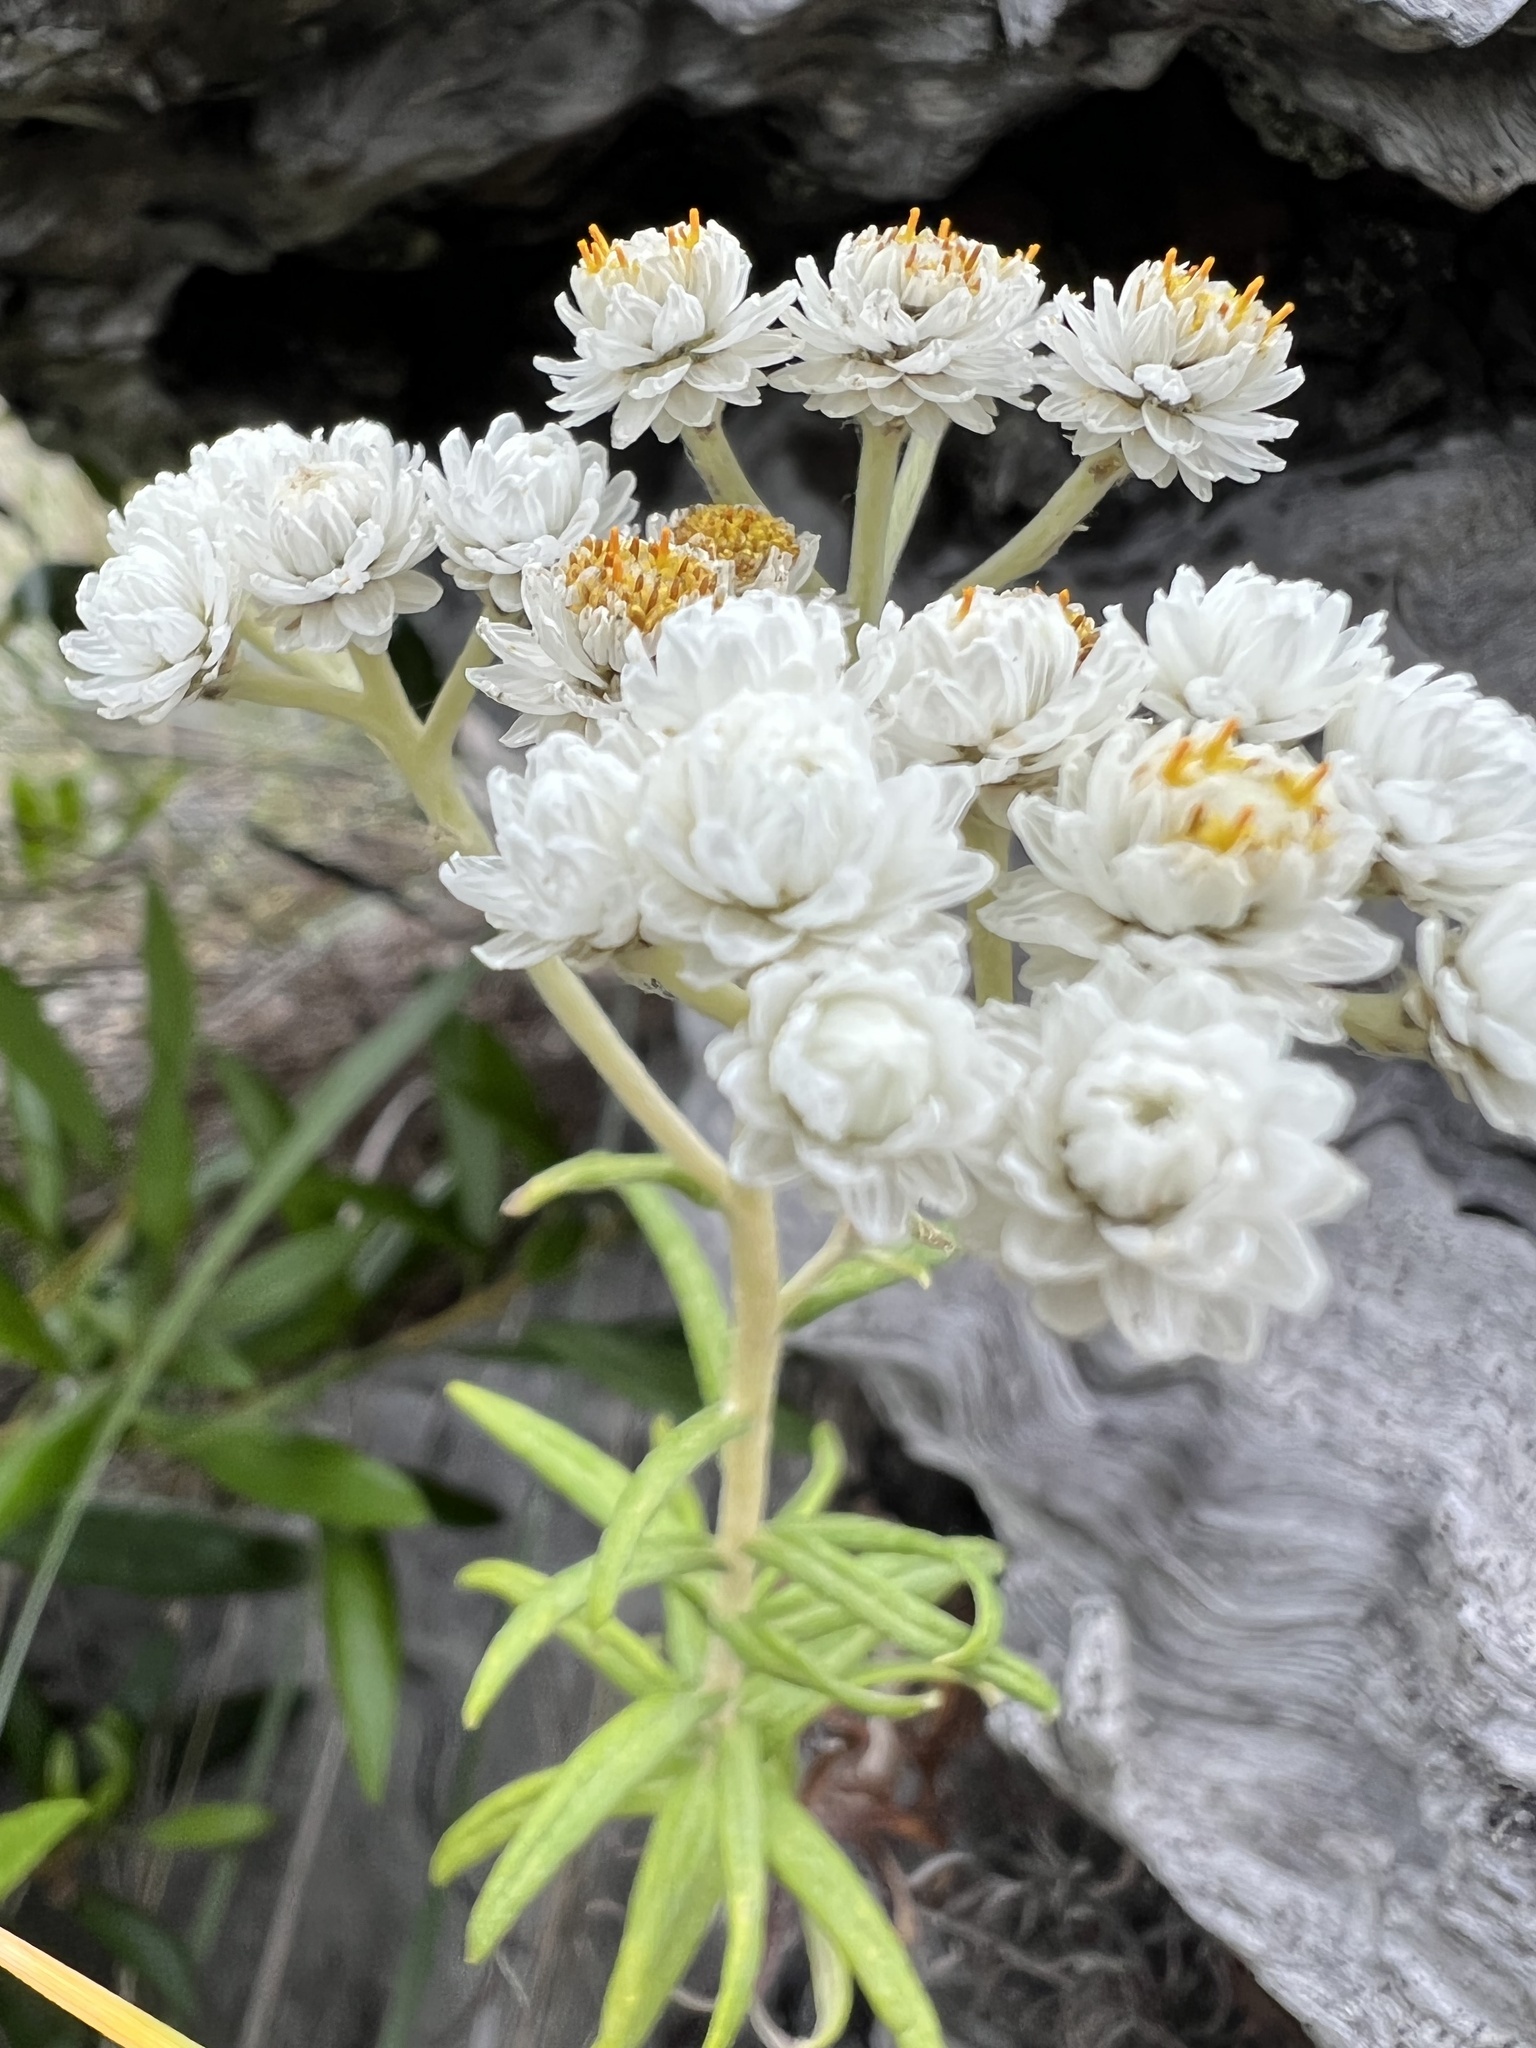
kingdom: Plantae
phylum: Tracheophyta
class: Magnoliopsida
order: Asterales
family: Asteraceae
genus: Anaphalis
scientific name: Anaphalis margaritacea
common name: Pearly everlasting
